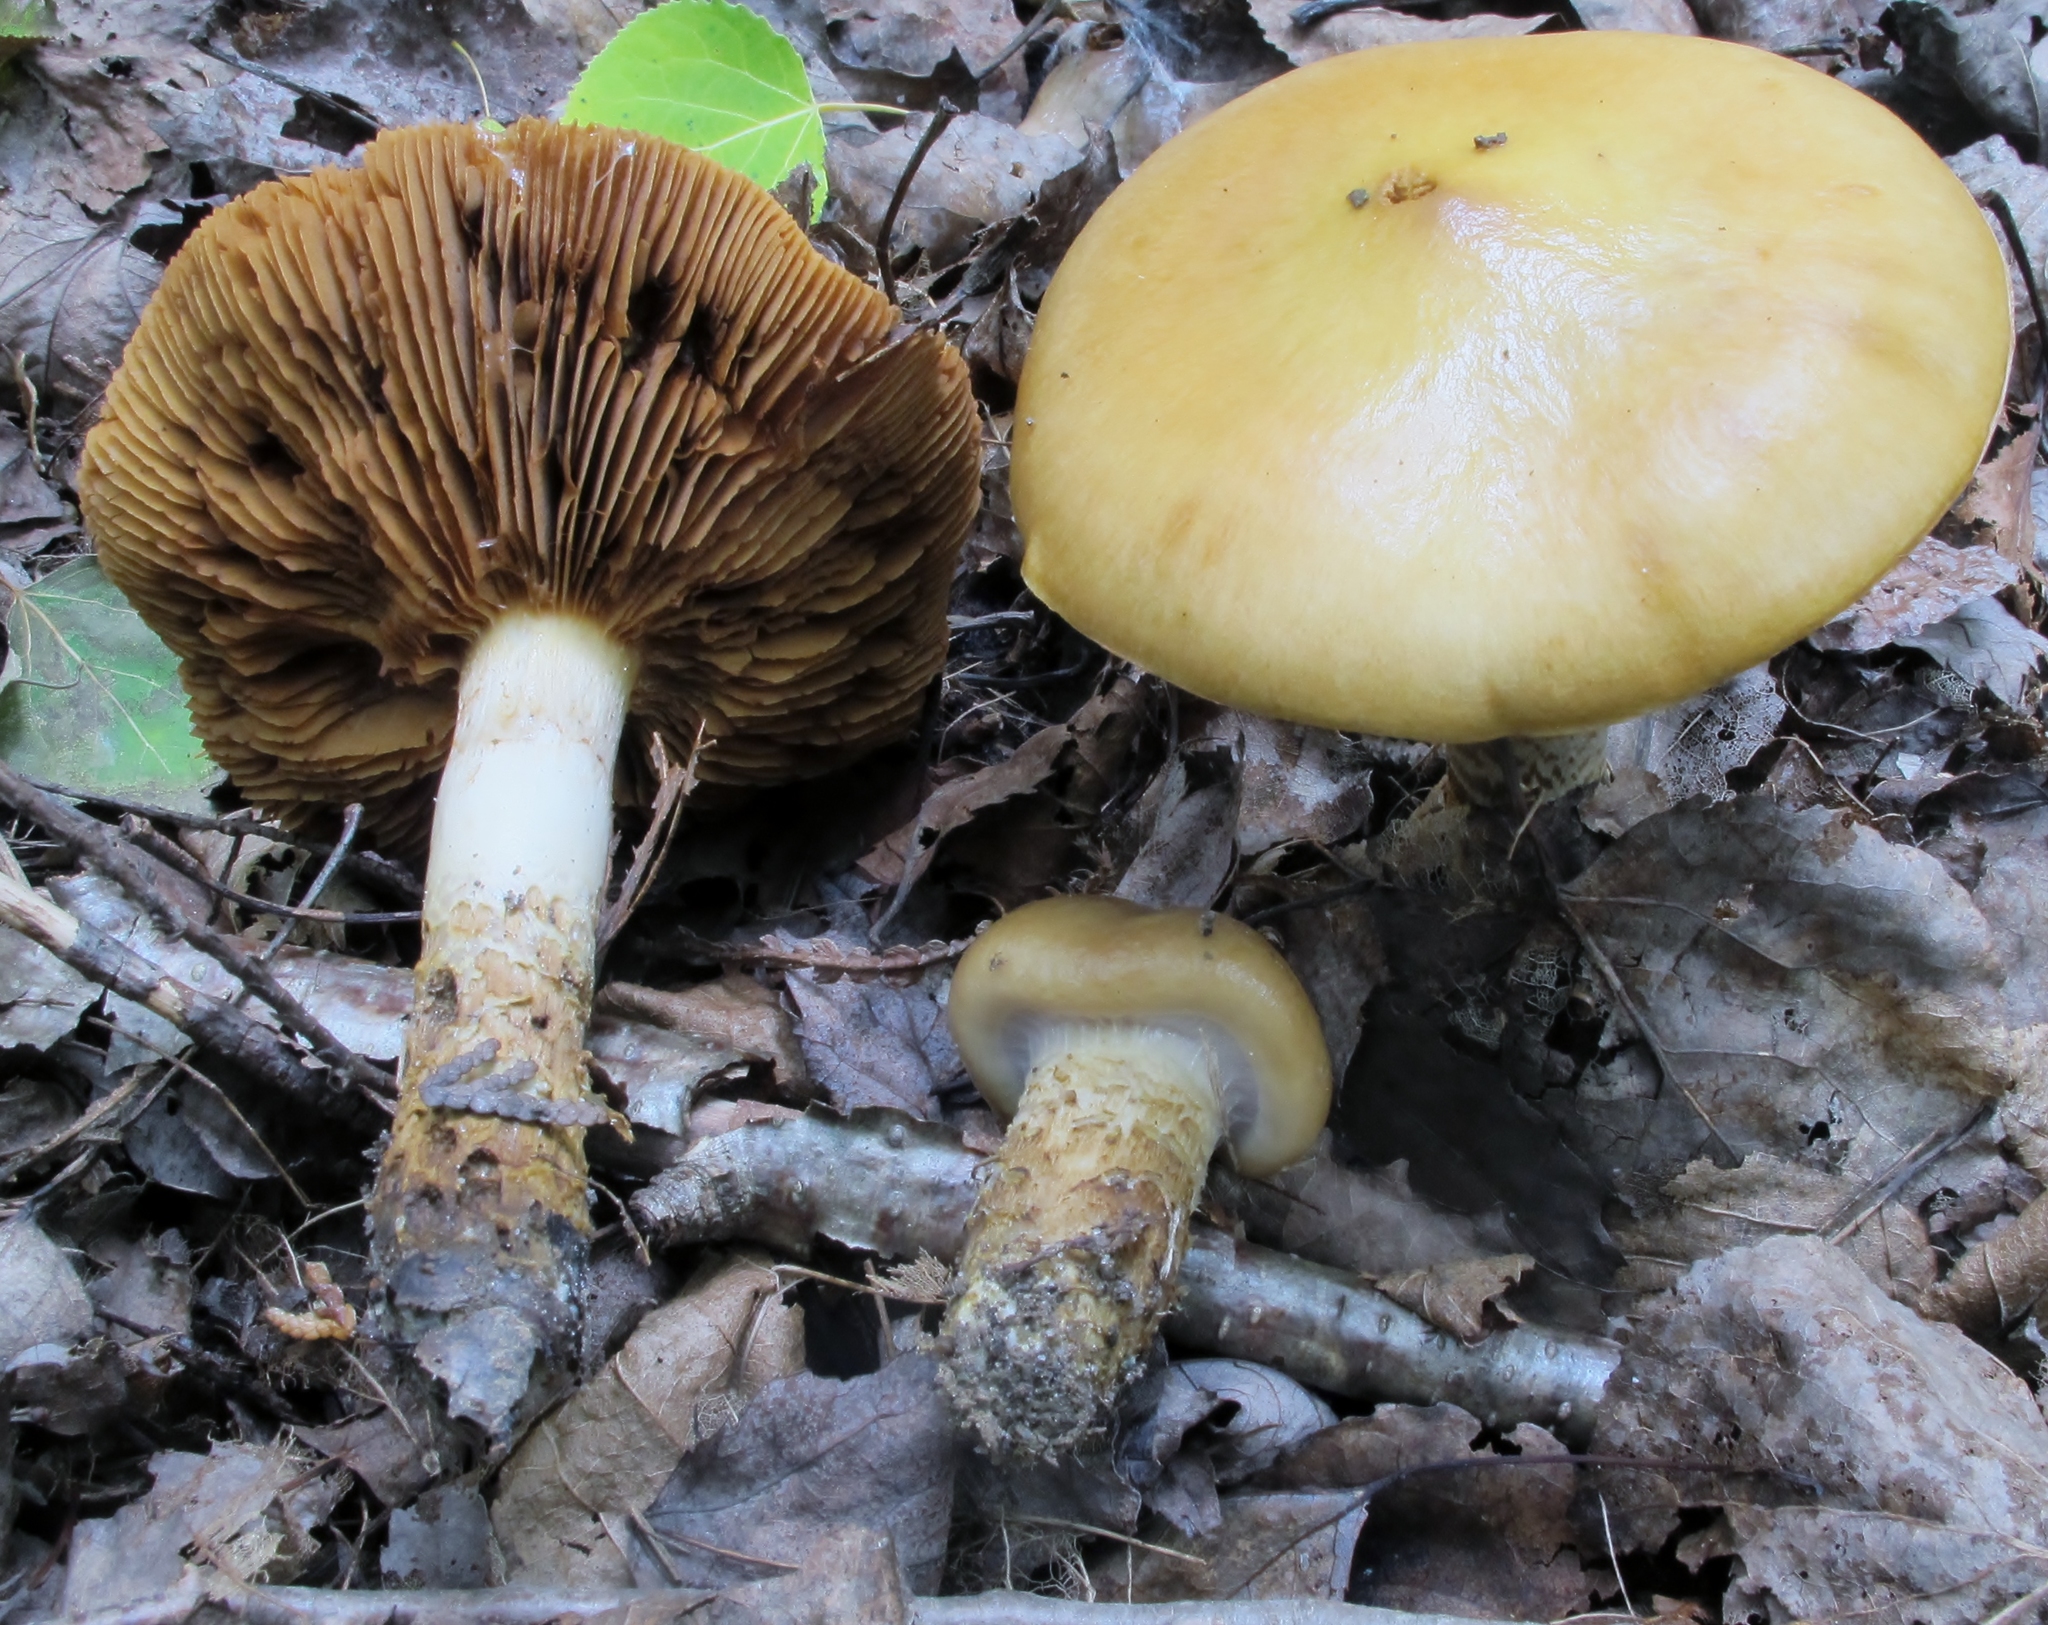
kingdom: Fungi
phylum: Basidiomycota
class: Agaricomycetes
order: Agaricales
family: Cortinariaceae
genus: Cortinarius
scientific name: Cortinarius trivialis
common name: Girdled webcap
